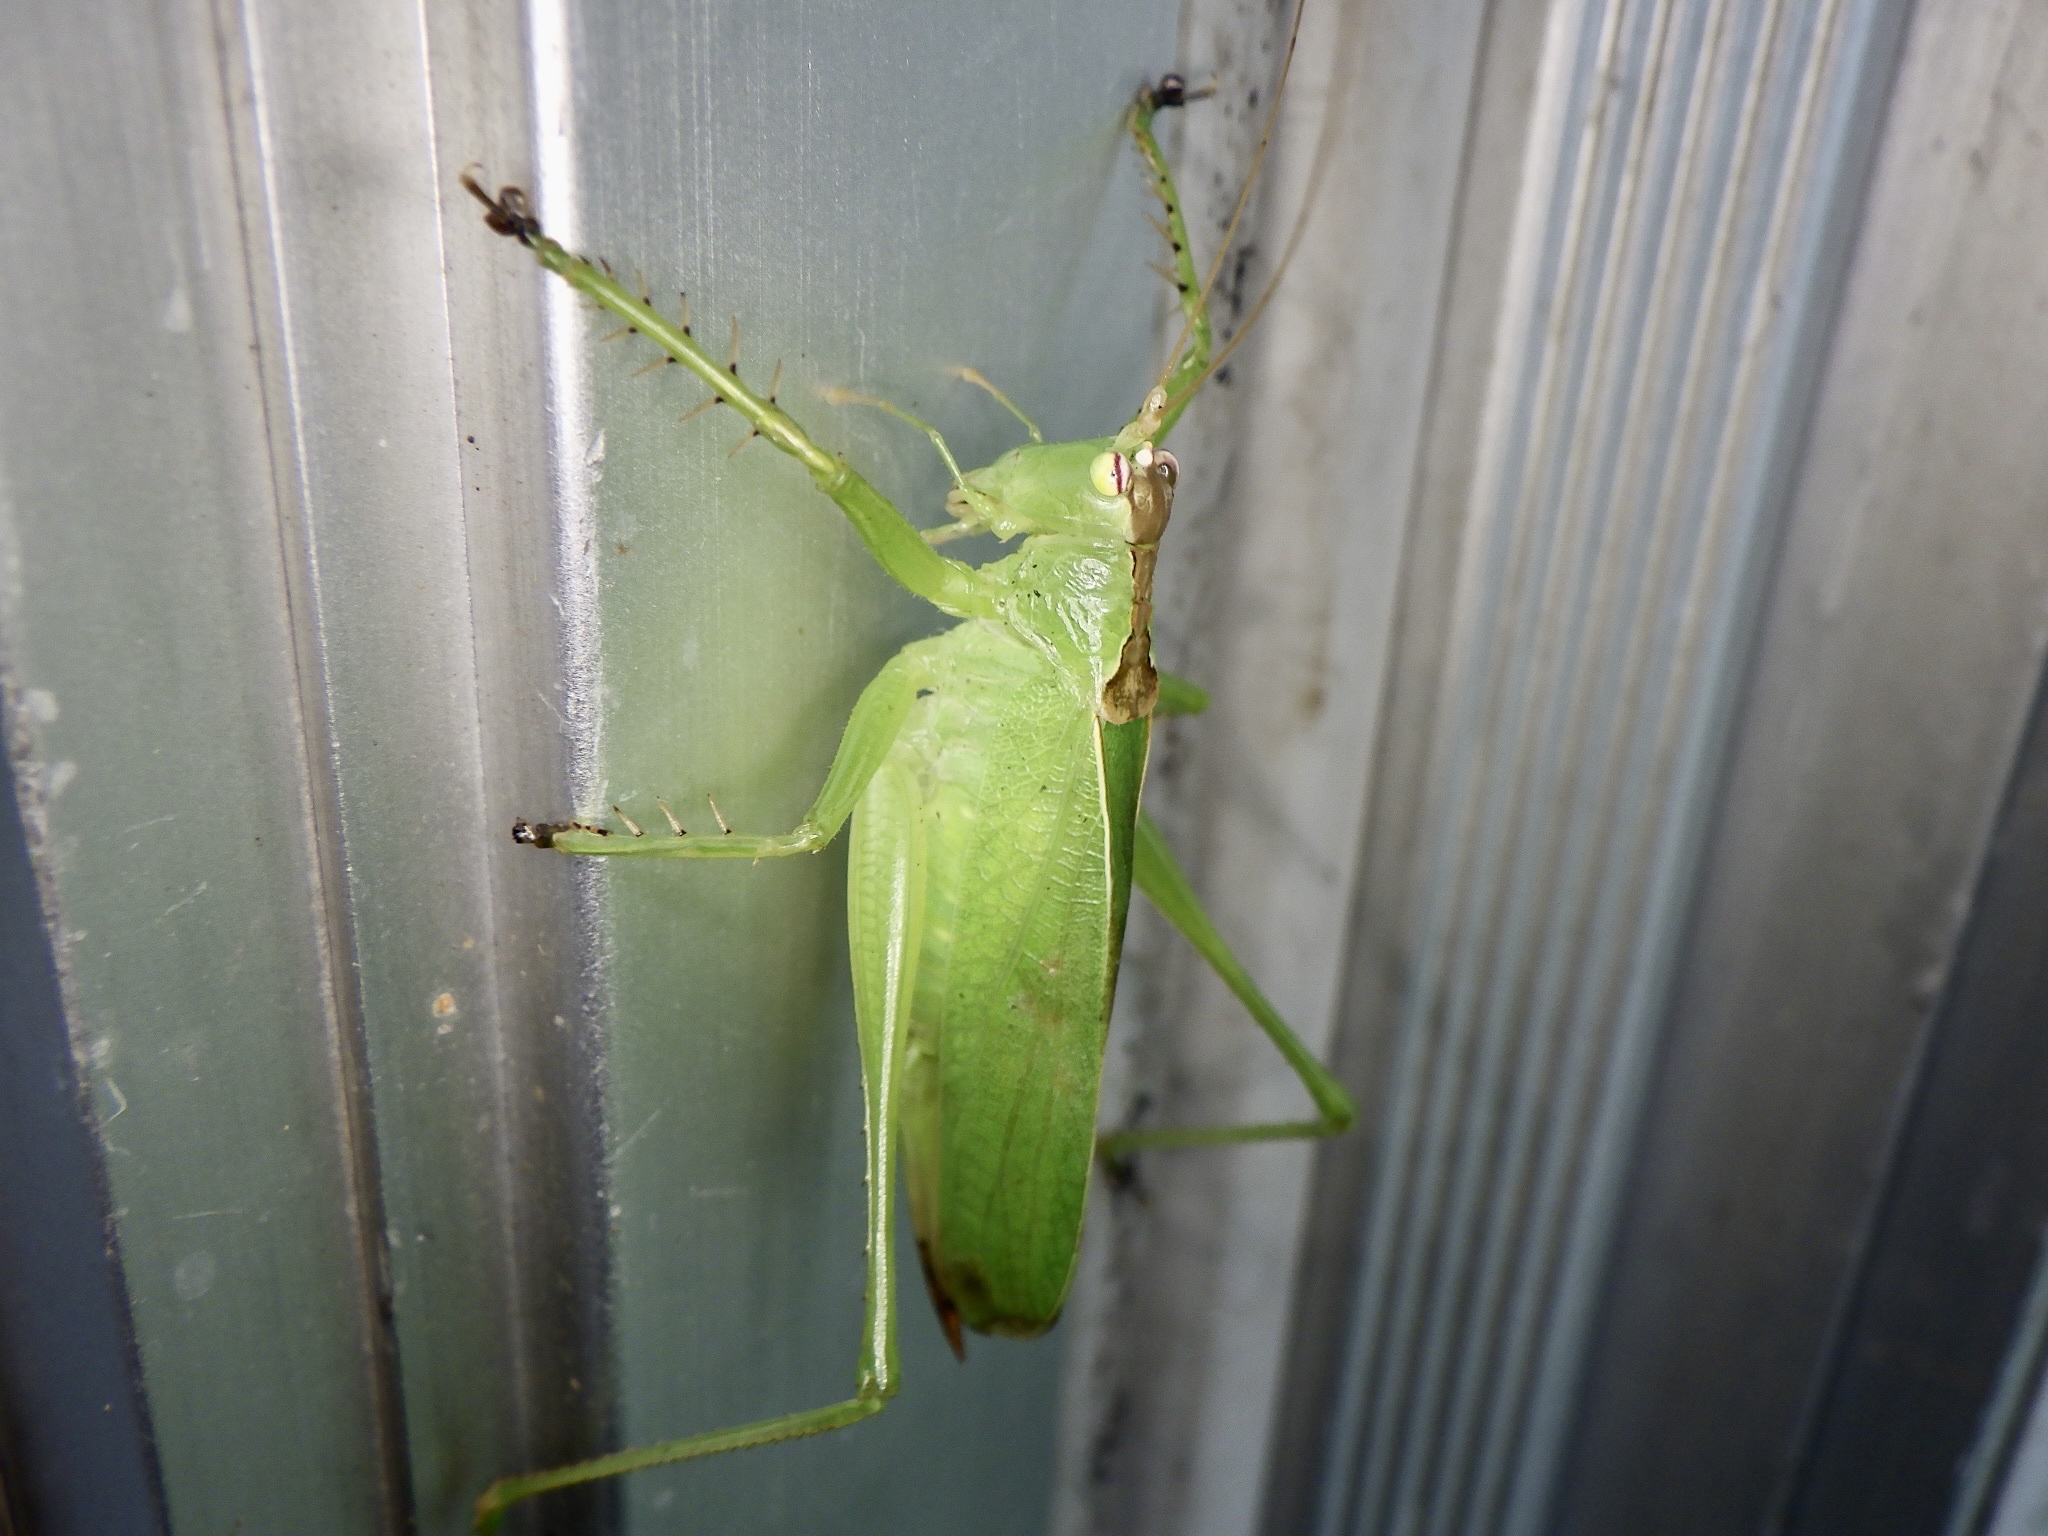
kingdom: Animalia
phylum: Arthropoda
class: Insecta
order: Orthoptera
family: Tettigoniidae
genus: Hexacentrus
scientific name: Hexacentrus hareyamai
